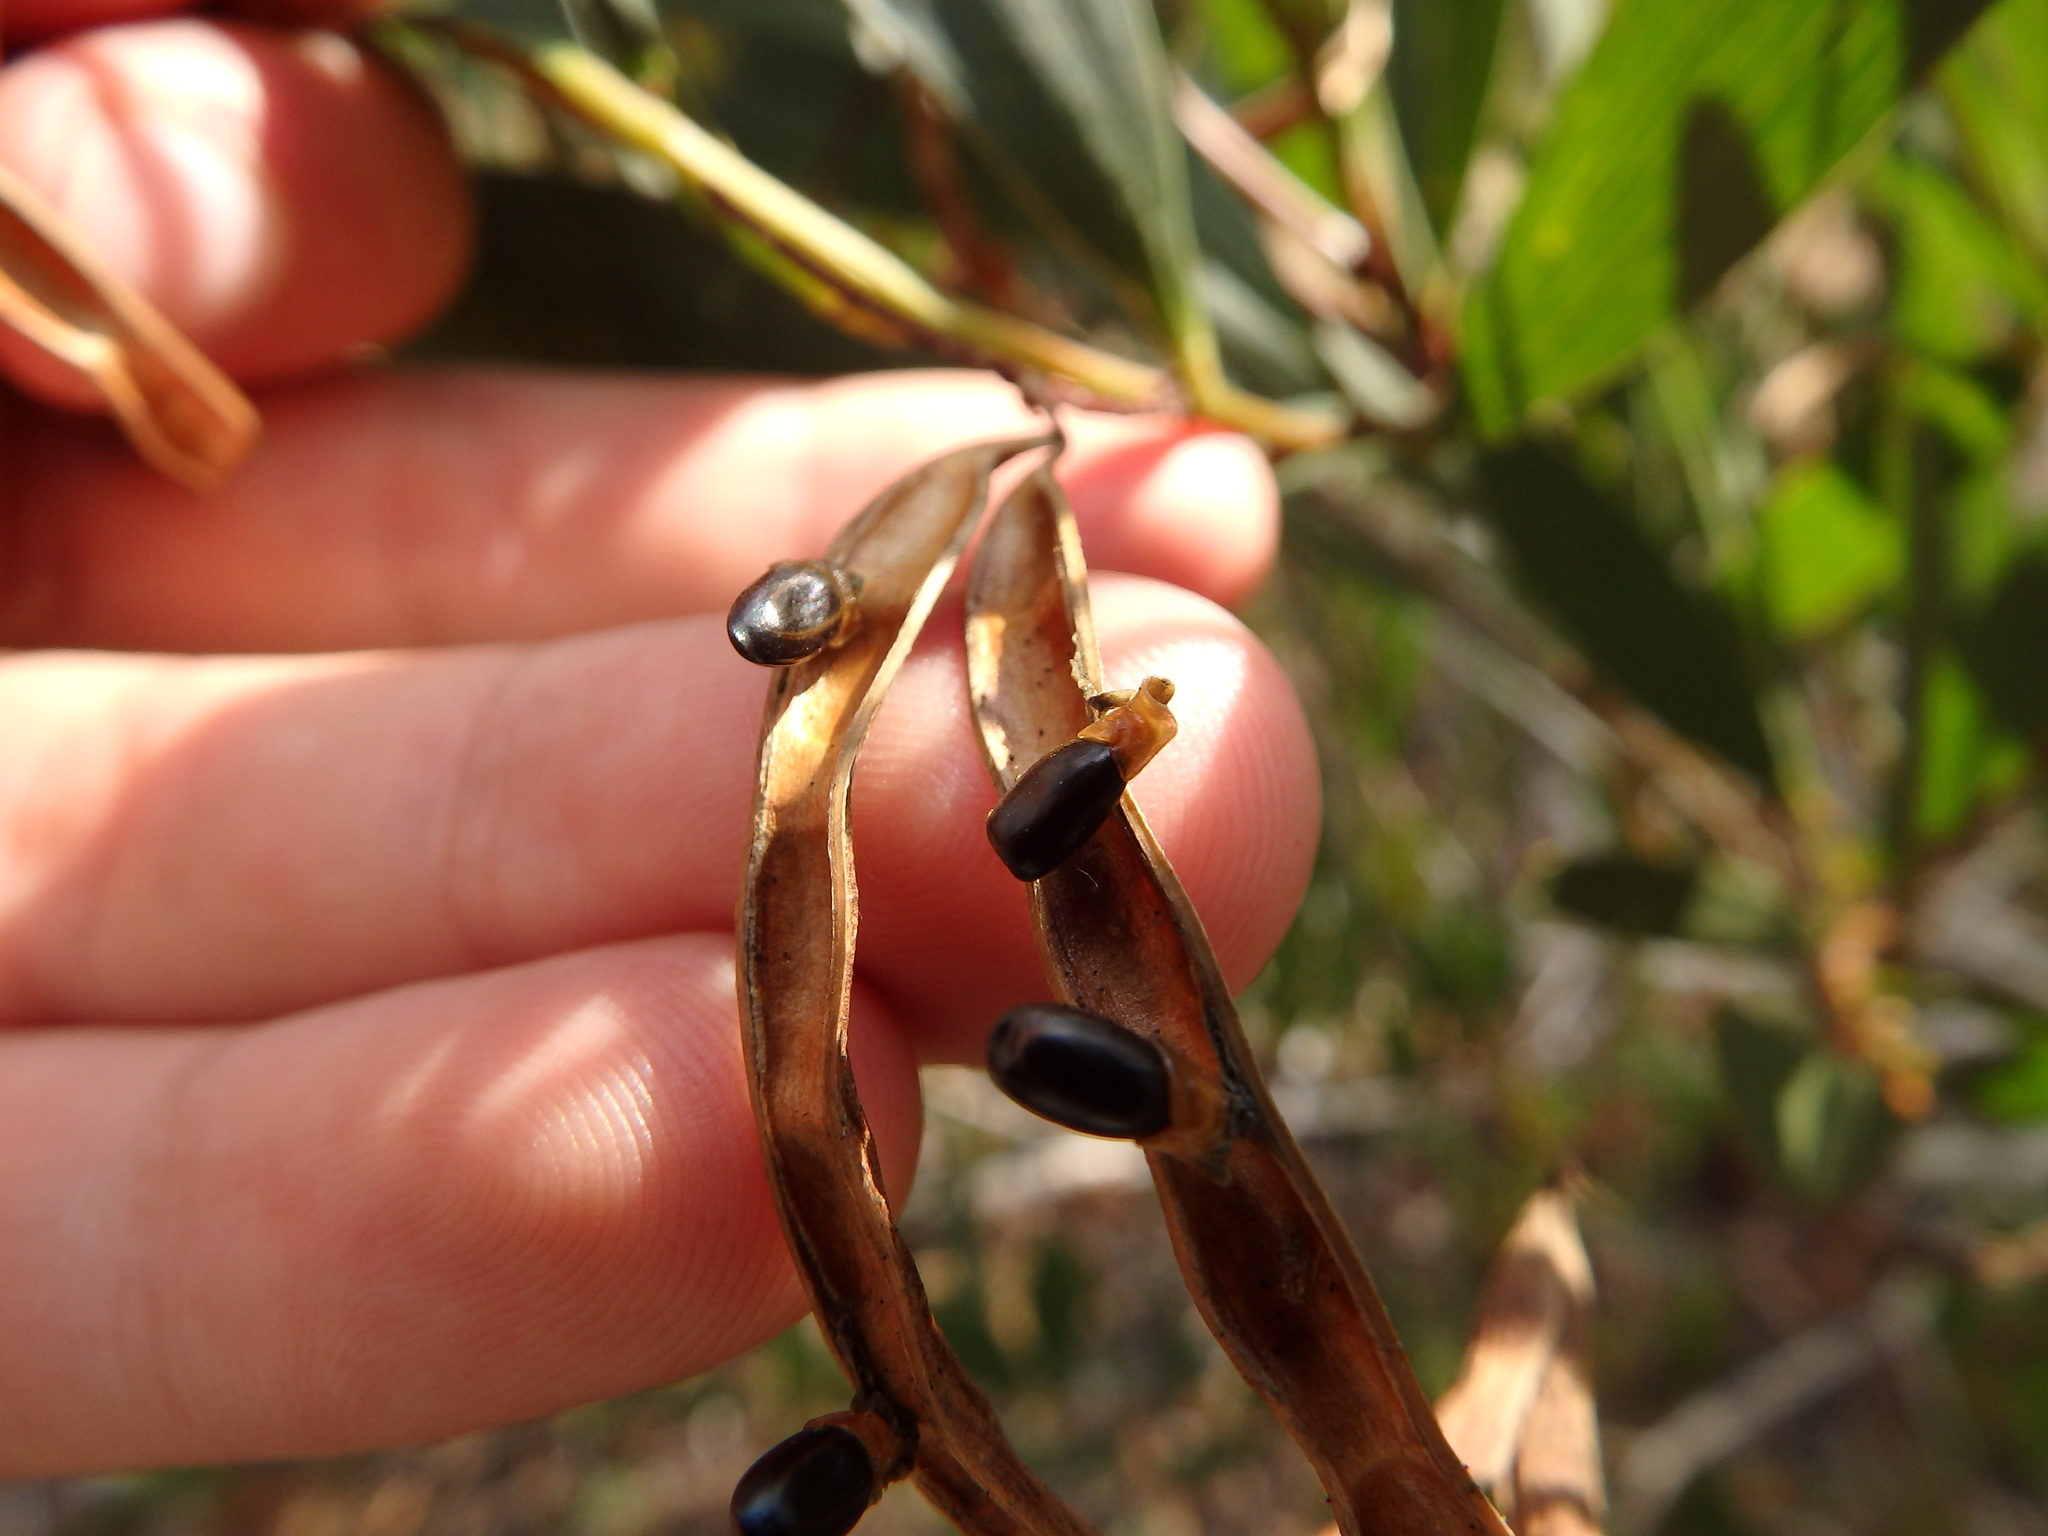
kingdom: Plantae
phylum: Tracheophyta
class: Magnoliopsida
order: Fabales
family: Fabaceae
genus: Acacia
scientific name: Acacia longifolia
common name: Sydney golden wattle
